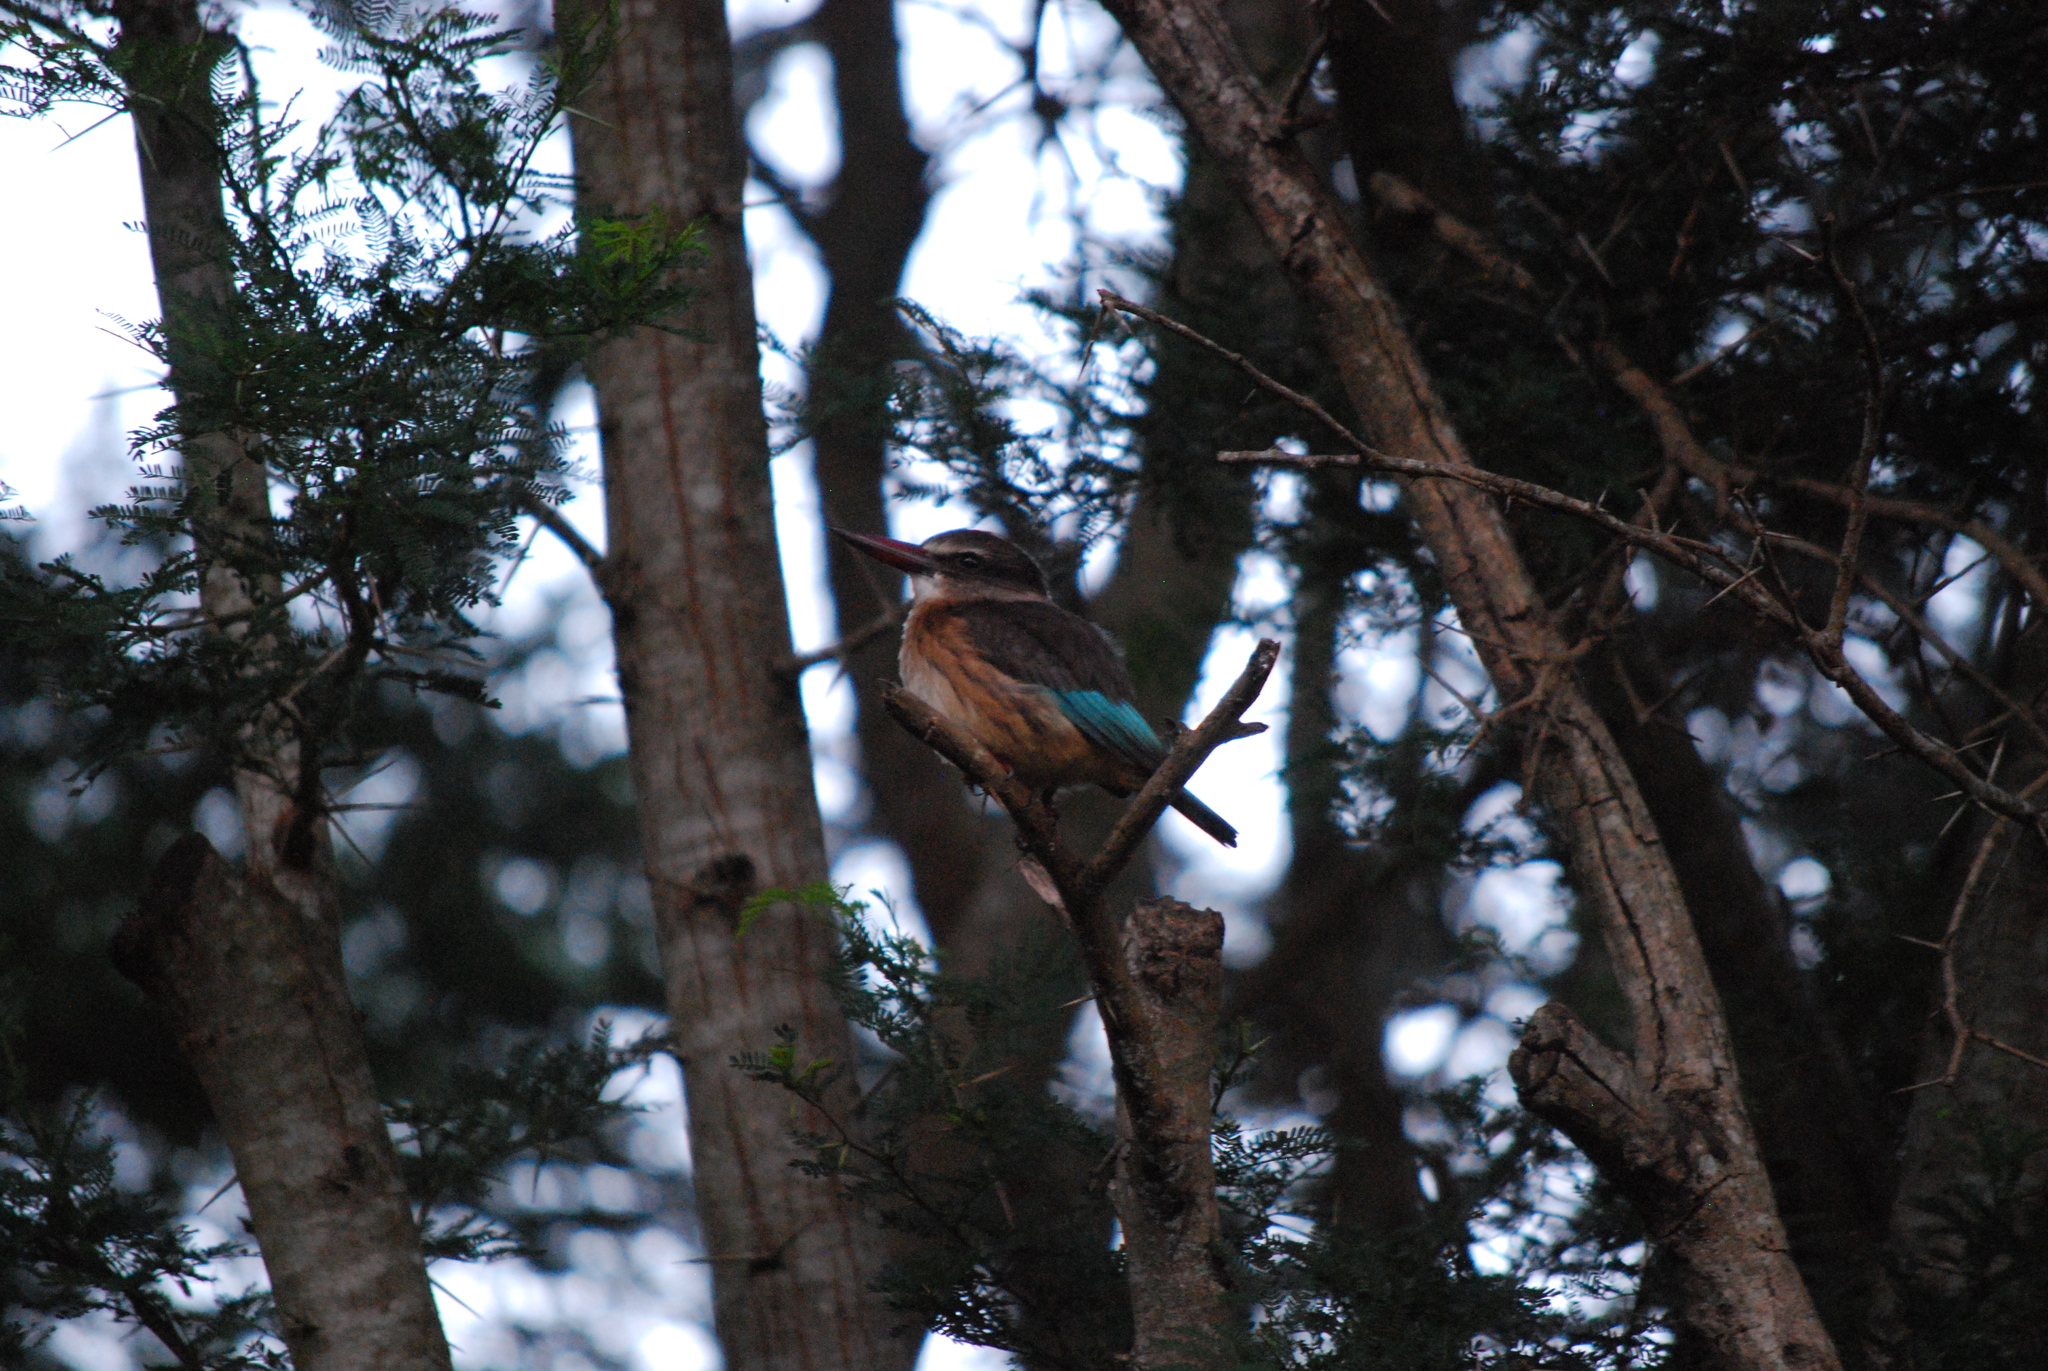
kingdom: Animalia
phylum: Chordata
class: Aves
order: Coraciiformes
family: Alcedinidae
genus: Halcyon
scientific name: Halcyon albiventris
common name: Brown-hooded kingfisher
